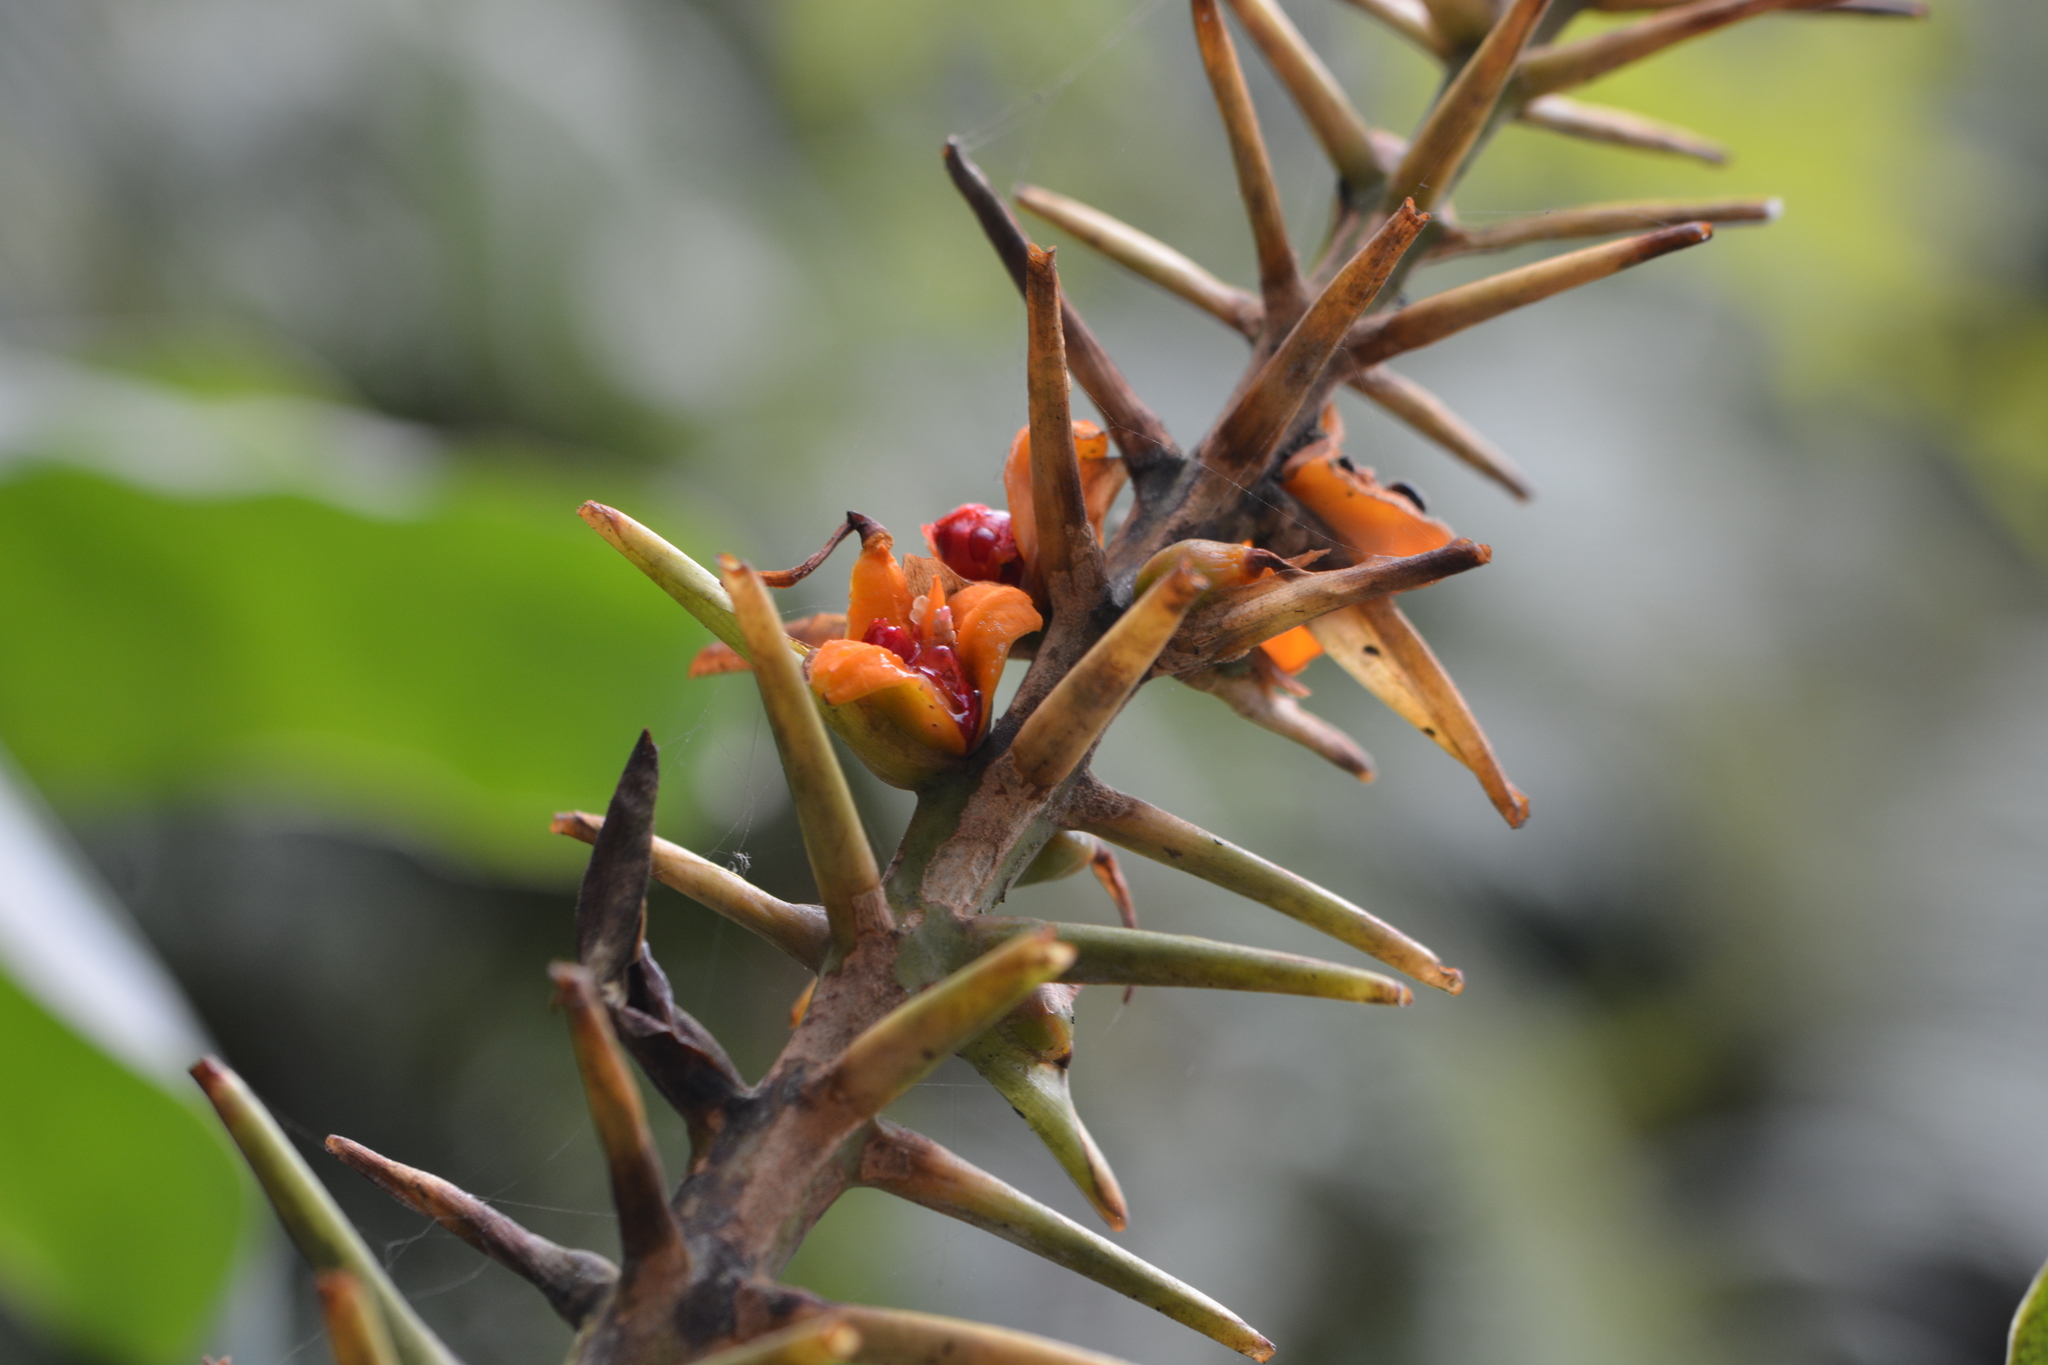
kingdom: Plantae
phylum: Tracheophyta
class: Liliopsida
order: Zingiberales
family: Zingiberaceae
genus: Hedychium
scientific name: Hedychium gardnerianum
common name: Himalayan ginger
